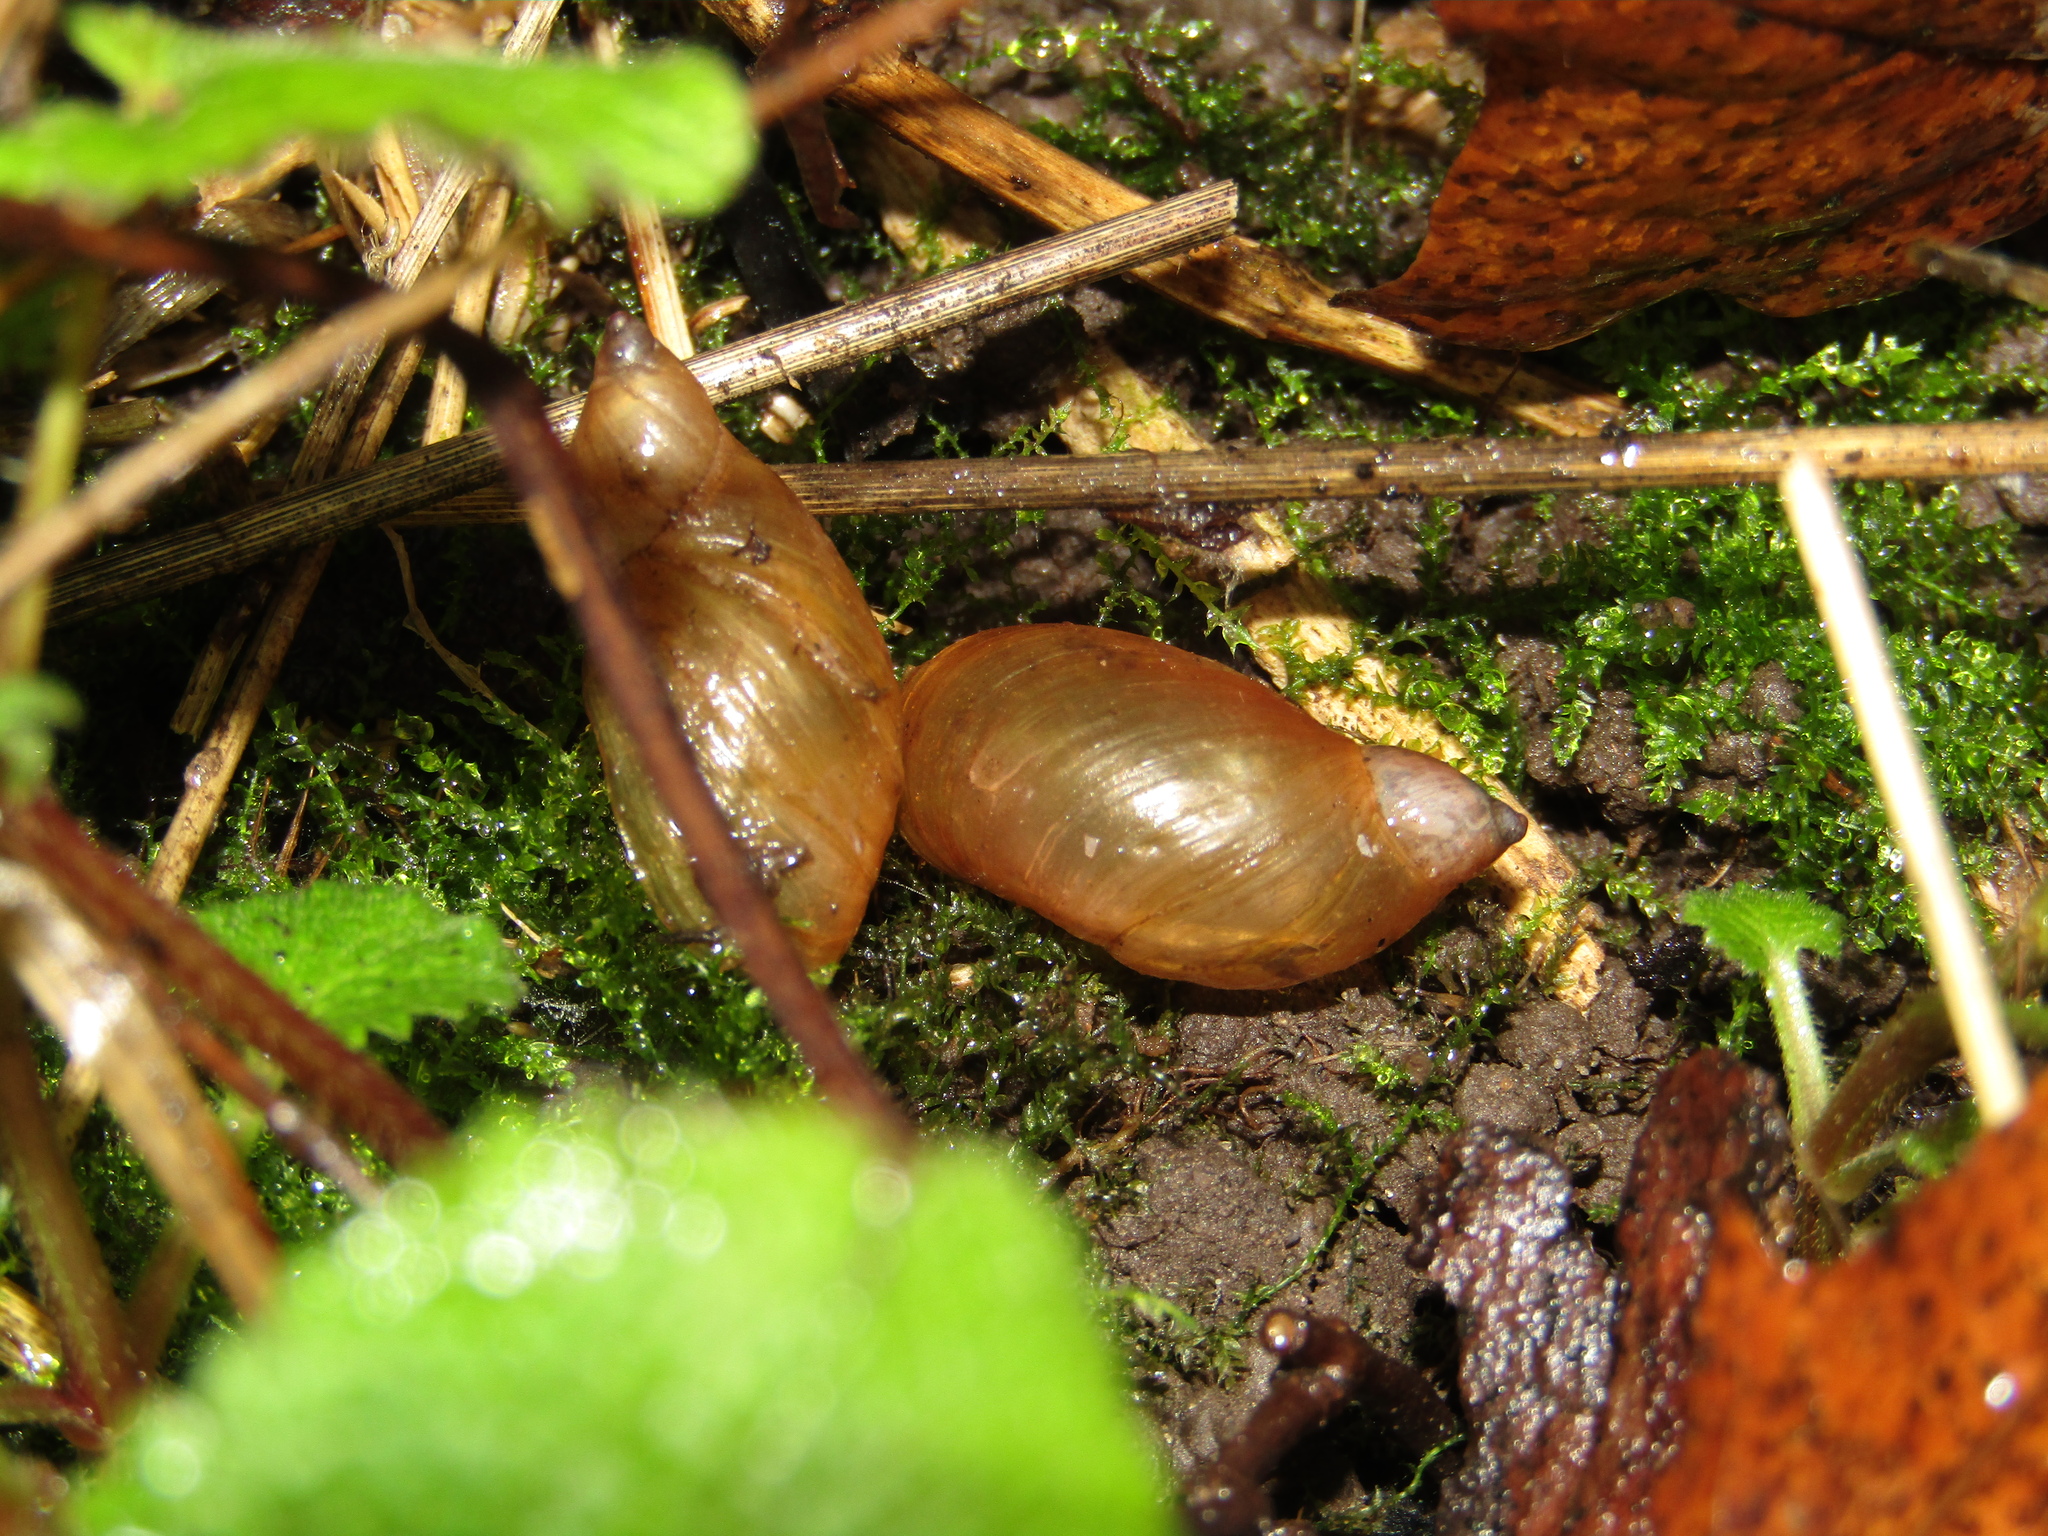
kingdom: Animalia
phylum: Mollusca
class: Gastropoda
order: Stylommatophora
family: Succineidae
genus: Succinea
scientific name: Succinea putris
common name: European ambersnail
